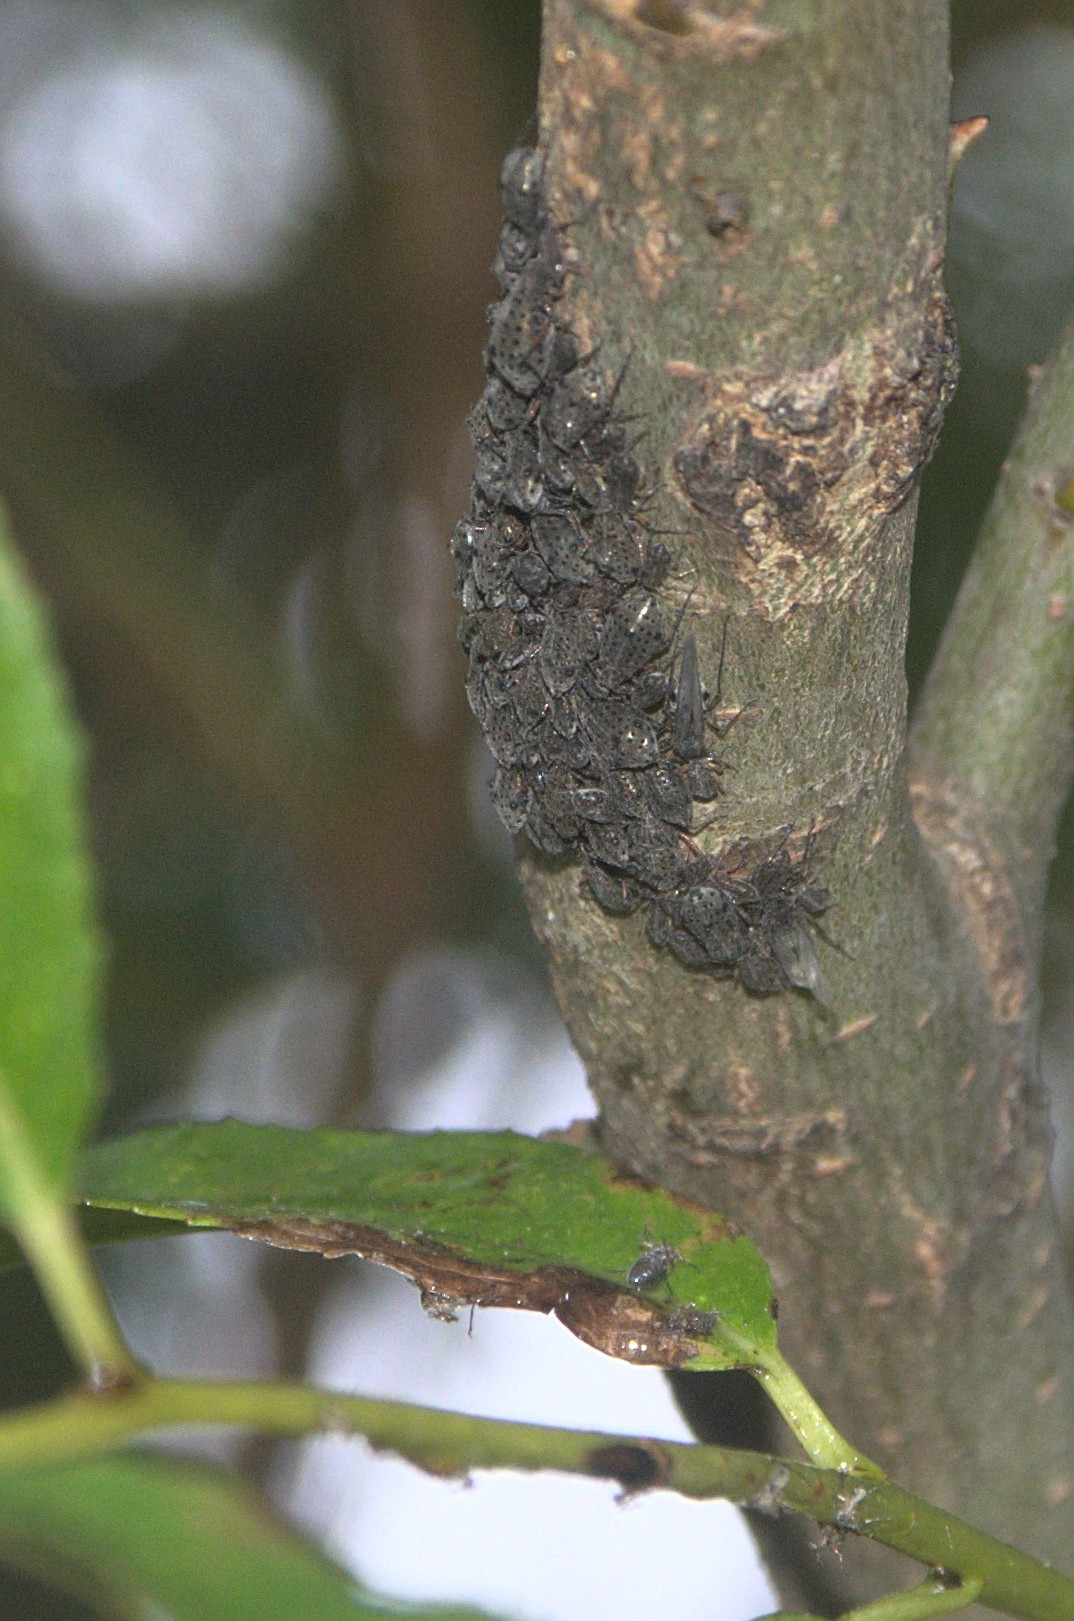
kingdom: Animalia
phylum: Arthropoda
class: Insecta
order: Hemiptera
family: Aphididae
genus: Tuberolachnus
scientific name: Tuberolachnus salignus
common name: Giant willow aphid
